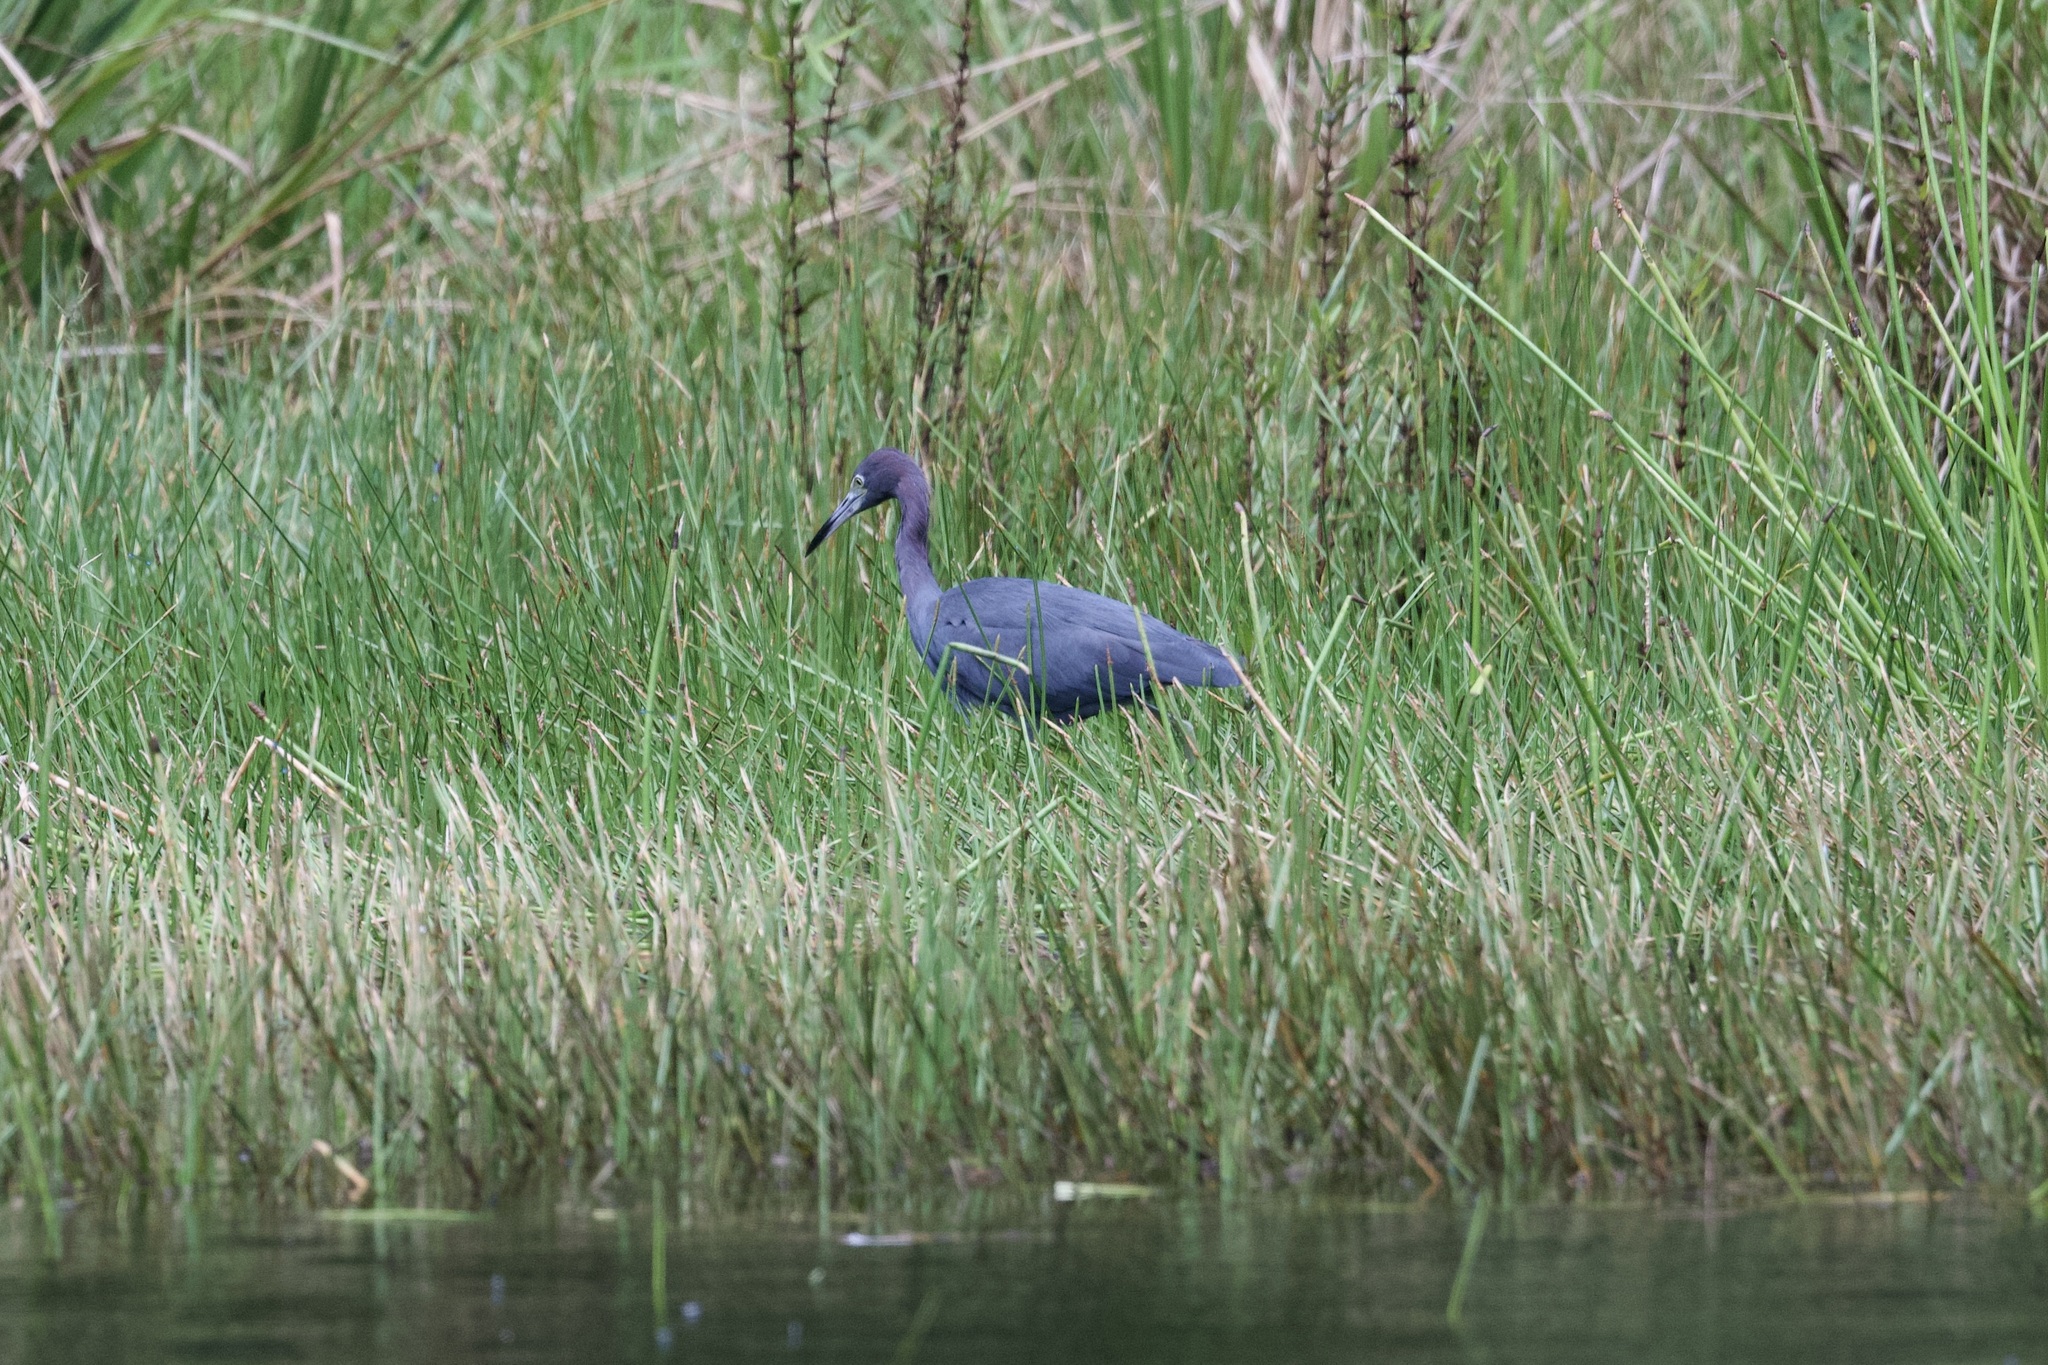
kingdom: Animalia
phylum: Chordata
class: Aves
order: Pelecaniformes
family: Ardeidae
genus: Egretta
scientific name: Egretta caerulea
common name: Little blue heron
